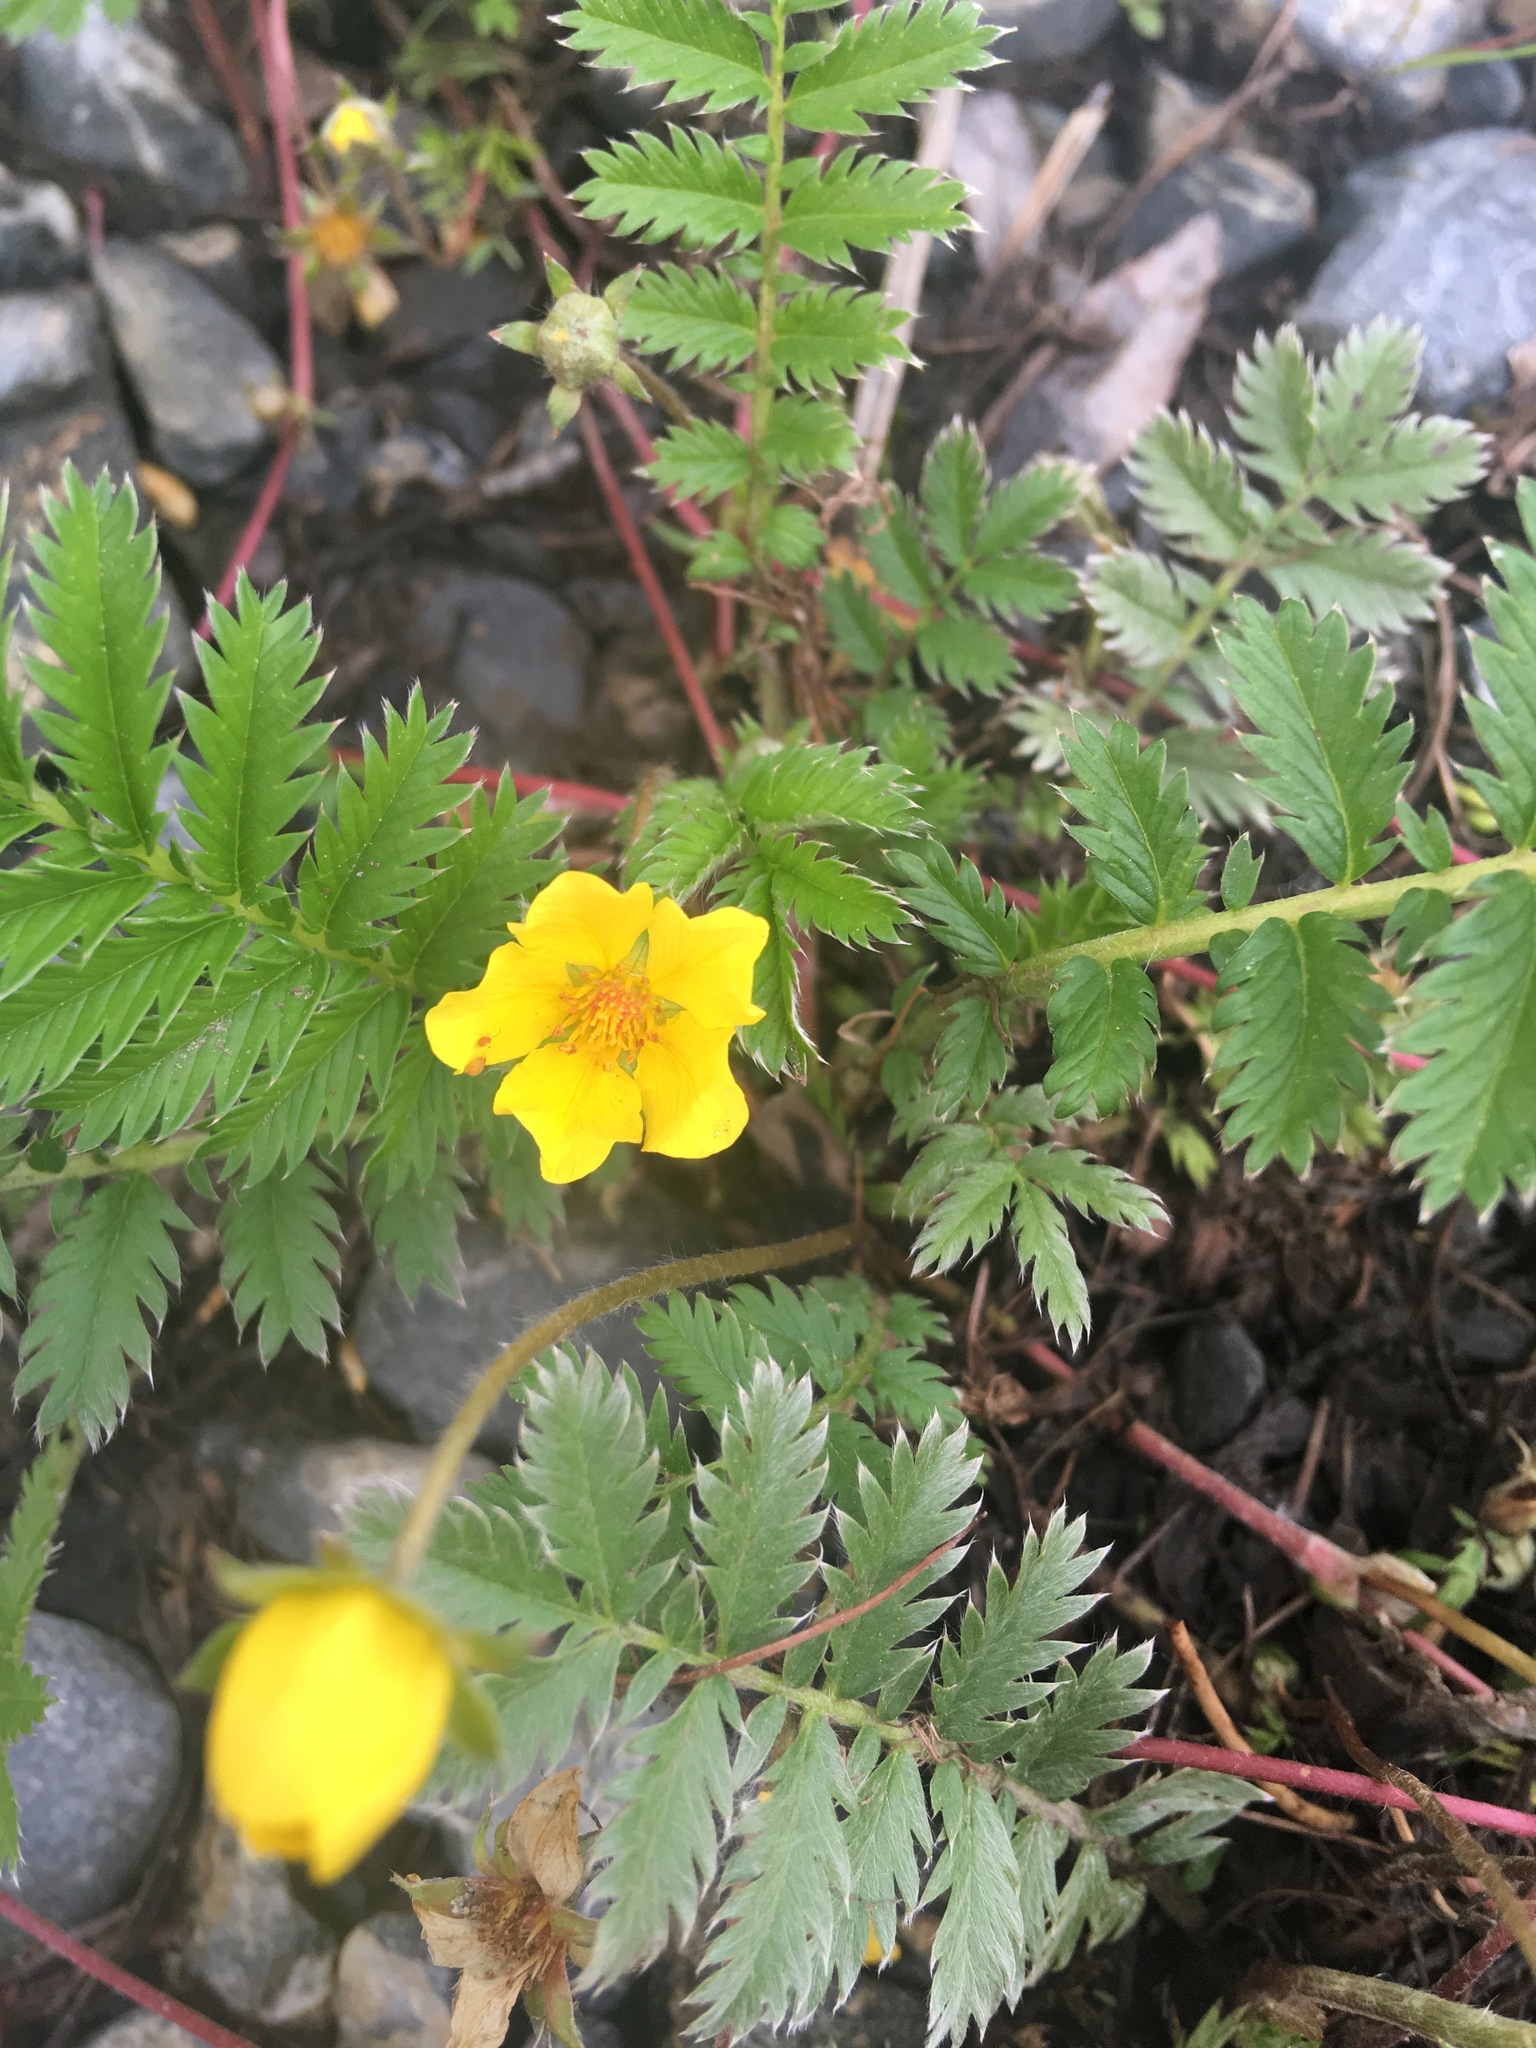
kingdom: Plantae
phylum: Tracheophyta
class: Magnoliopsida
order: Rosales
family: Rosaceae
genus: Argentina
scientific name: Argentina anserina
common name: Common silverweed
